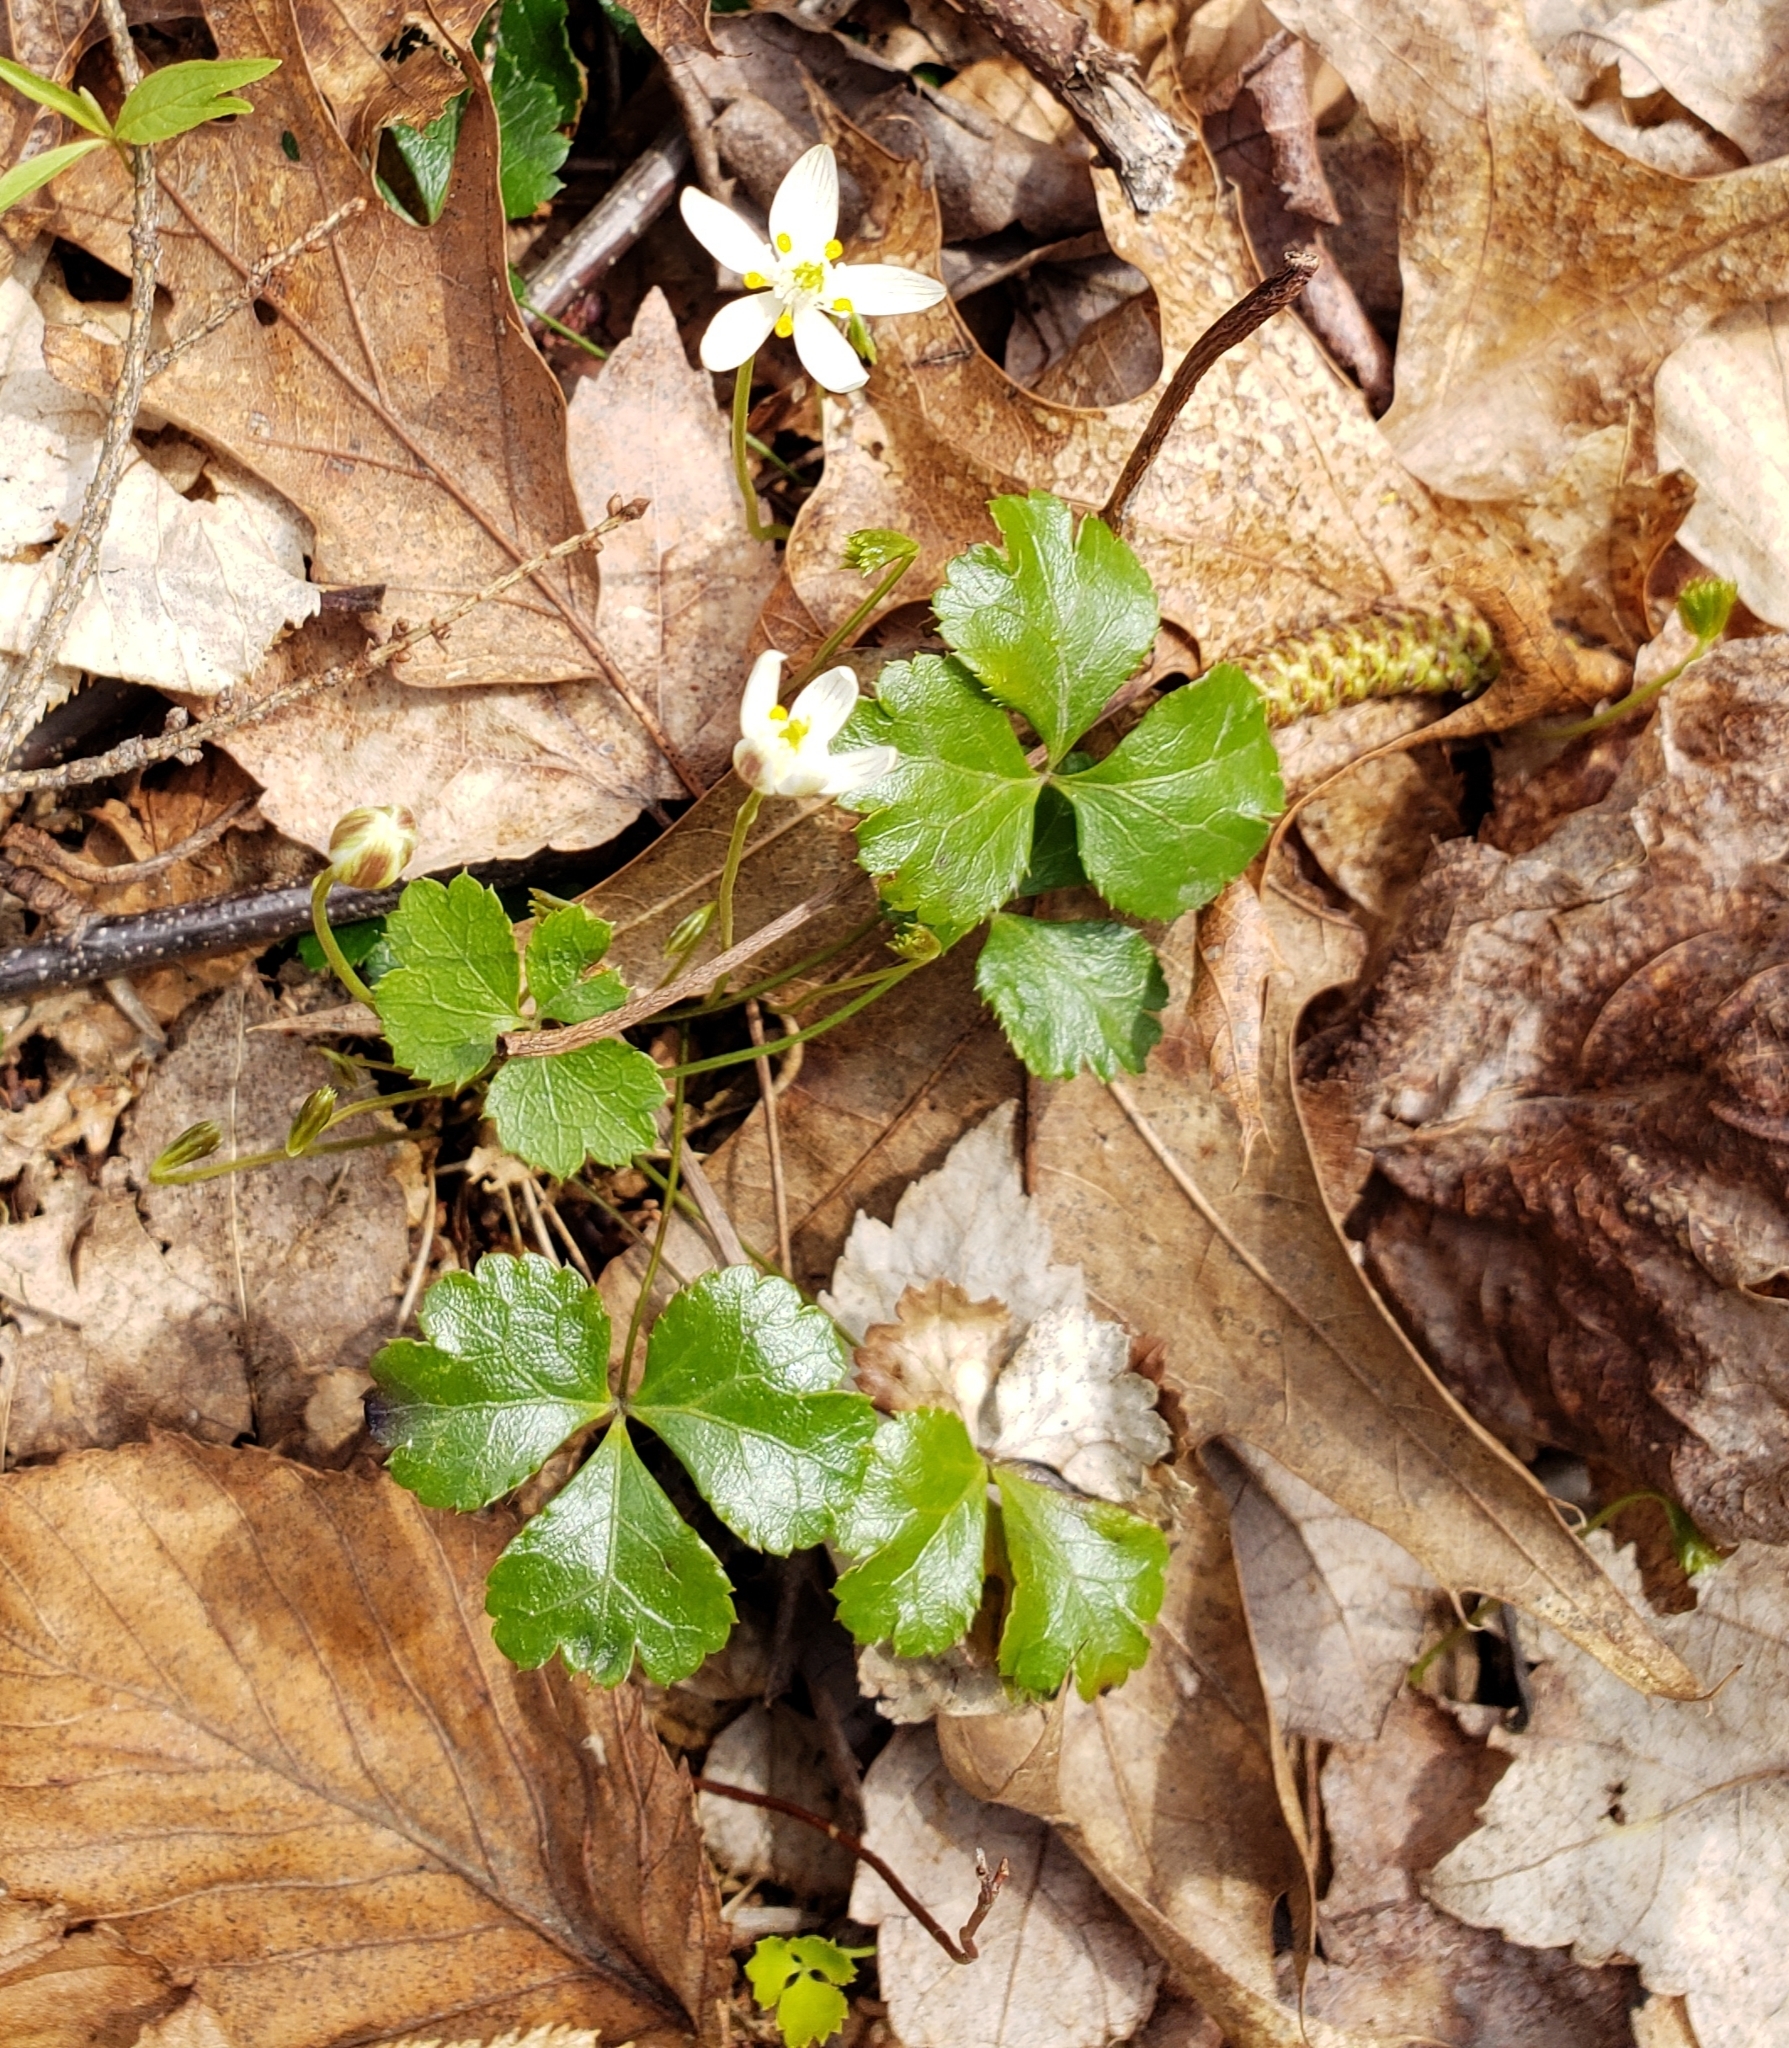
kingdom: Plantae
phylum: Tracheophyta
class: Magnoliopsida
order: Ranunculales
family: Ranunculaceae
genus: Coptis
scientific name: Coptis trifolia
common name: Canker-root
